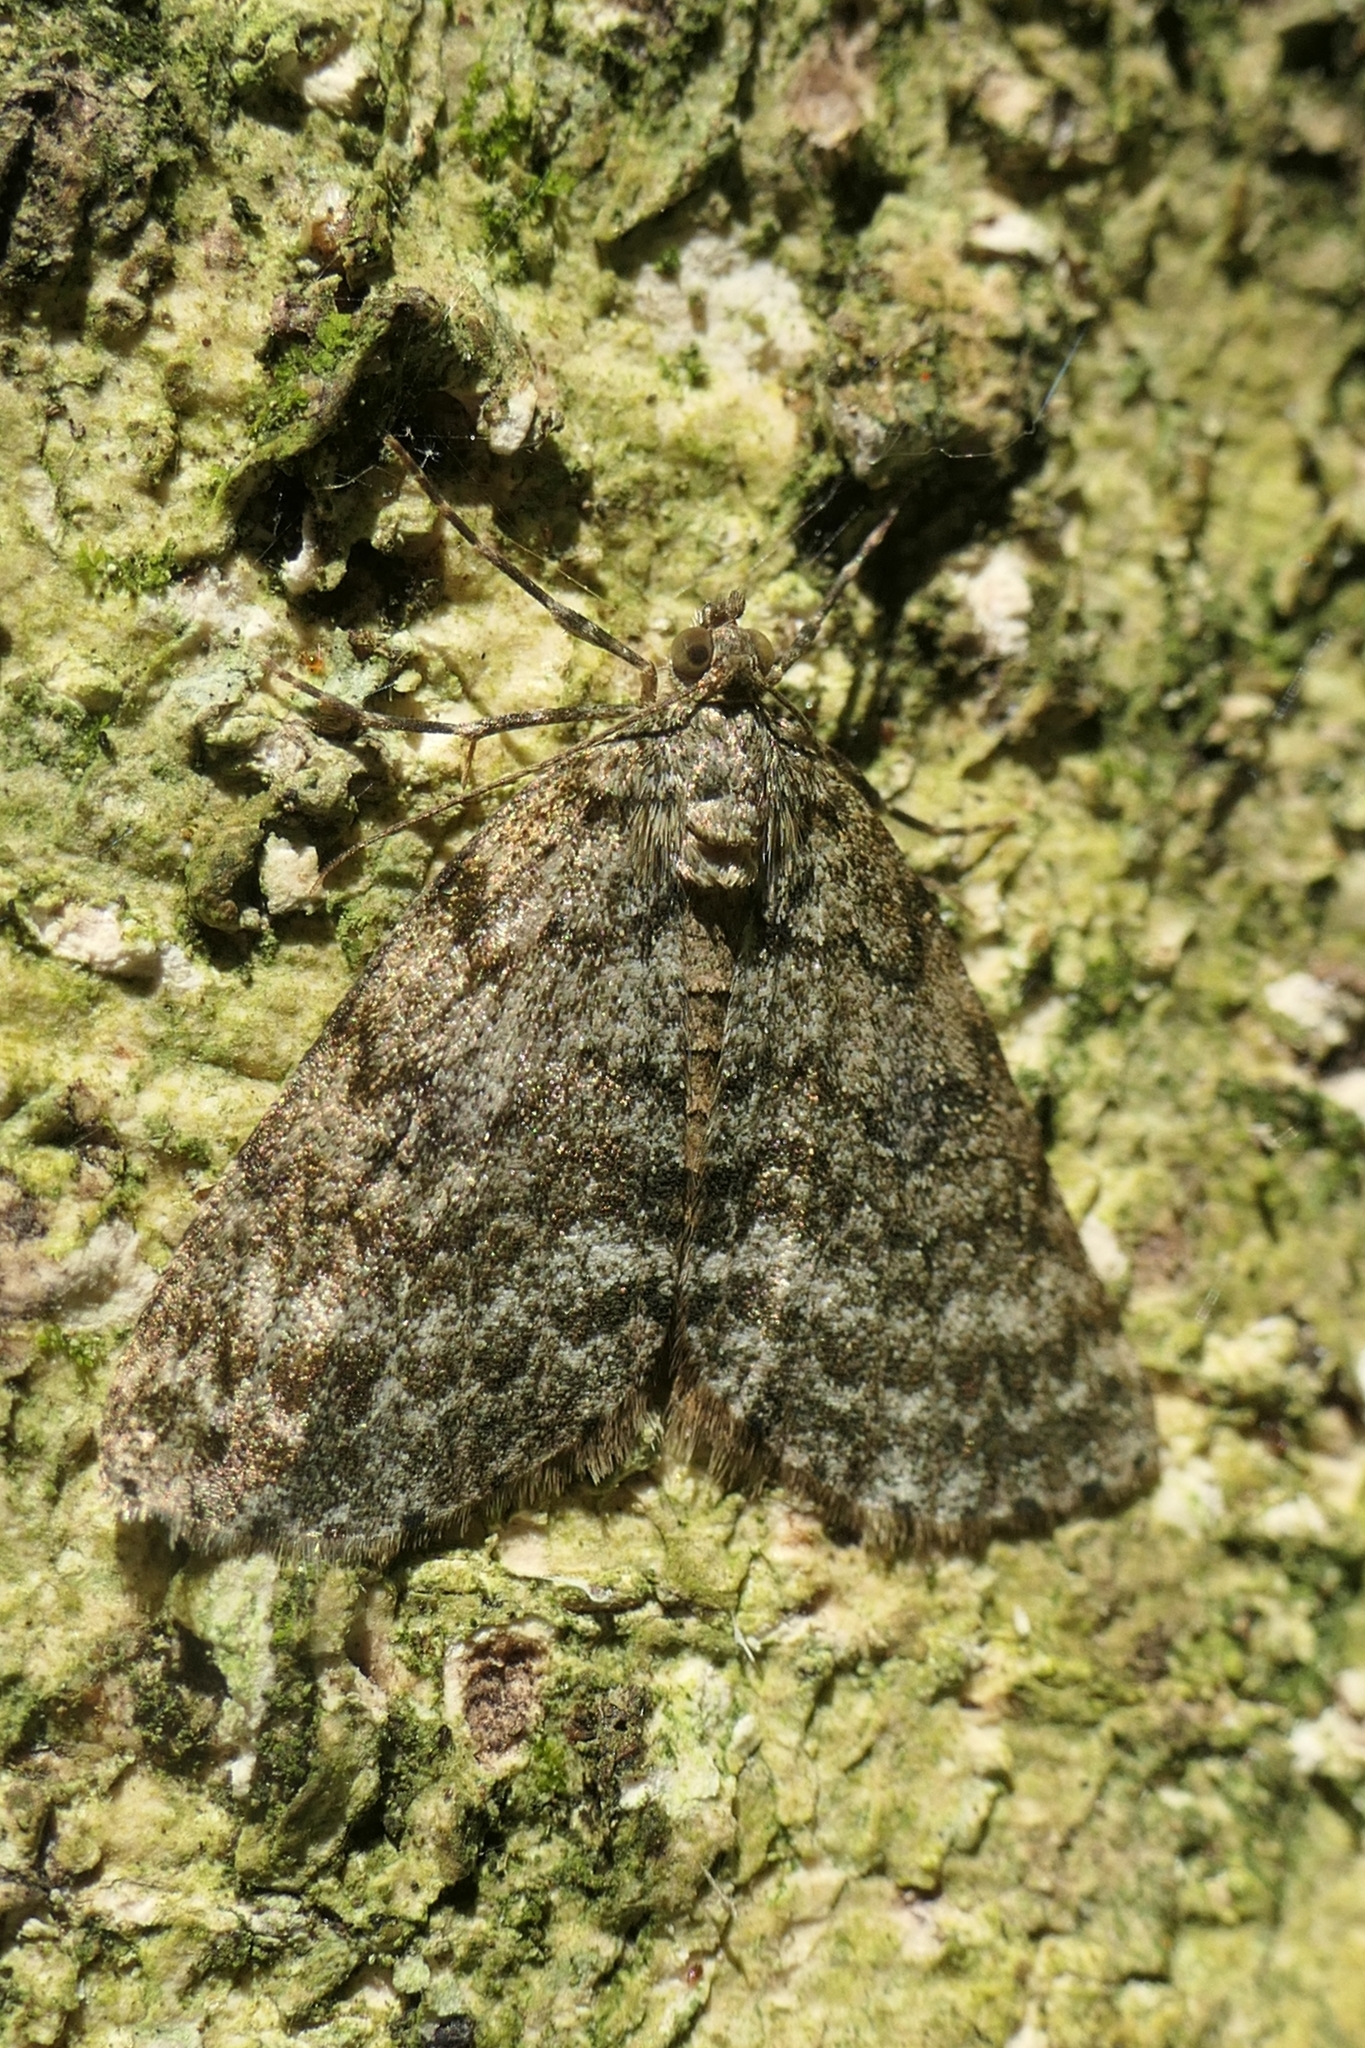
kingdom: Animalia
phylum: Arthropoda
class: Insecta
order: Lepidoptera
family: Geometridae
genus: Pseudocoremia
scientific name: Pseudocoremia indistincta
